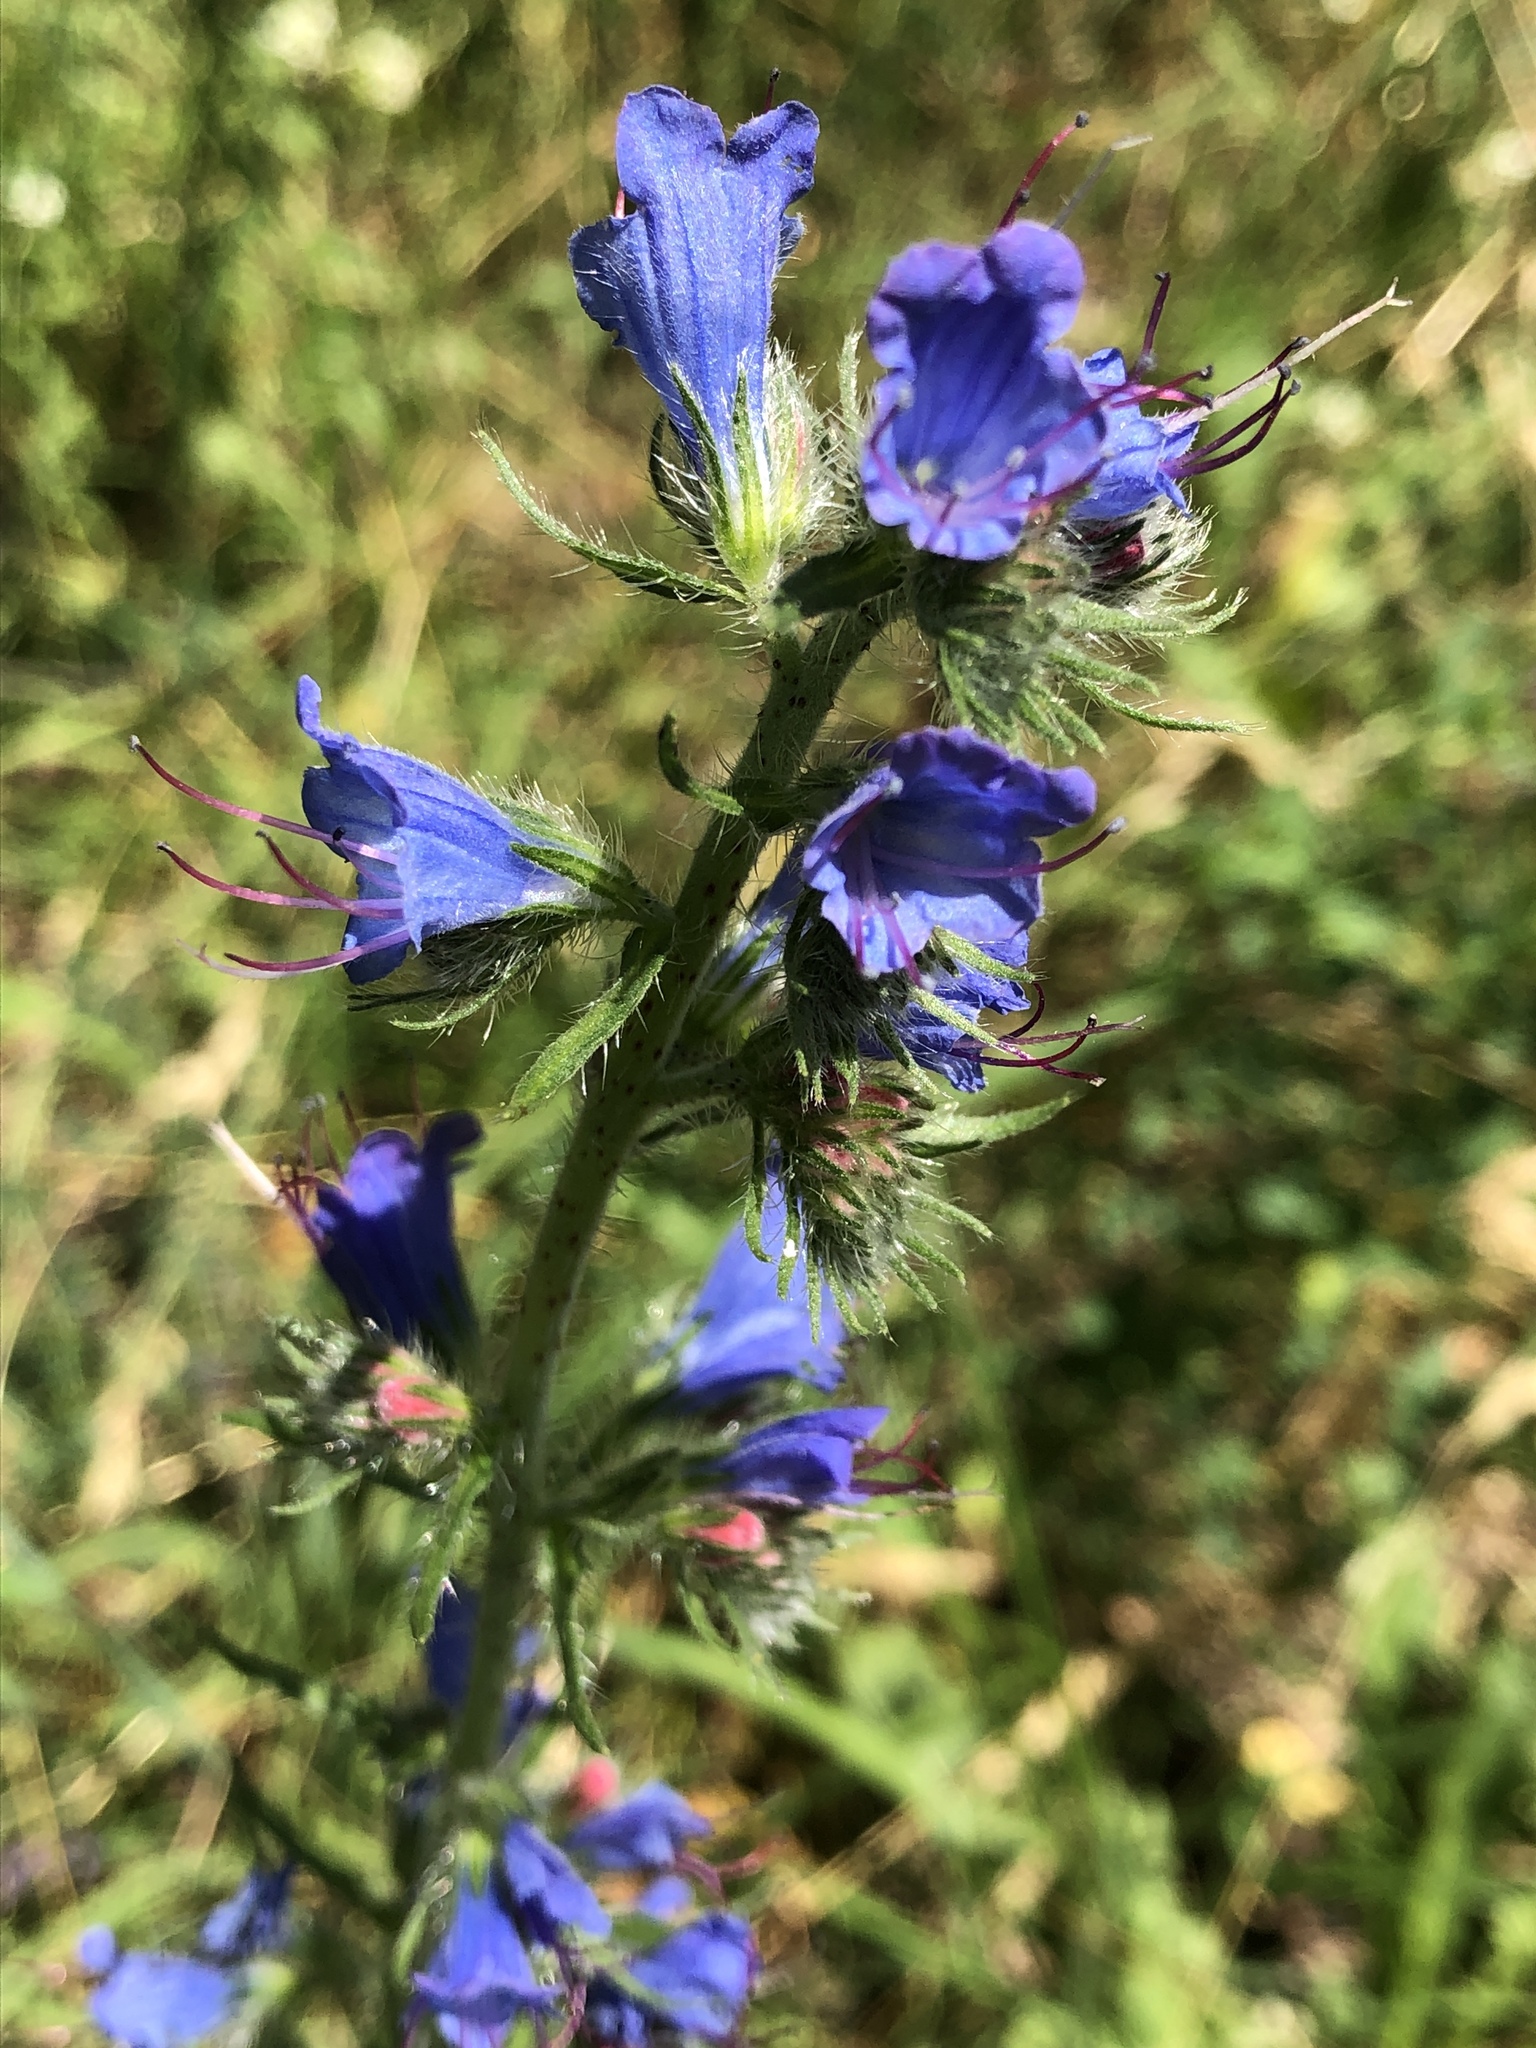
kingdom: Plantae
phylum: Tracheophyta
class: Magnoliopsida
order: Boraginales
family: Boraginaceae
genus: Echium
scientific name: Echium vulgare
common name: Common viper's bugloss
